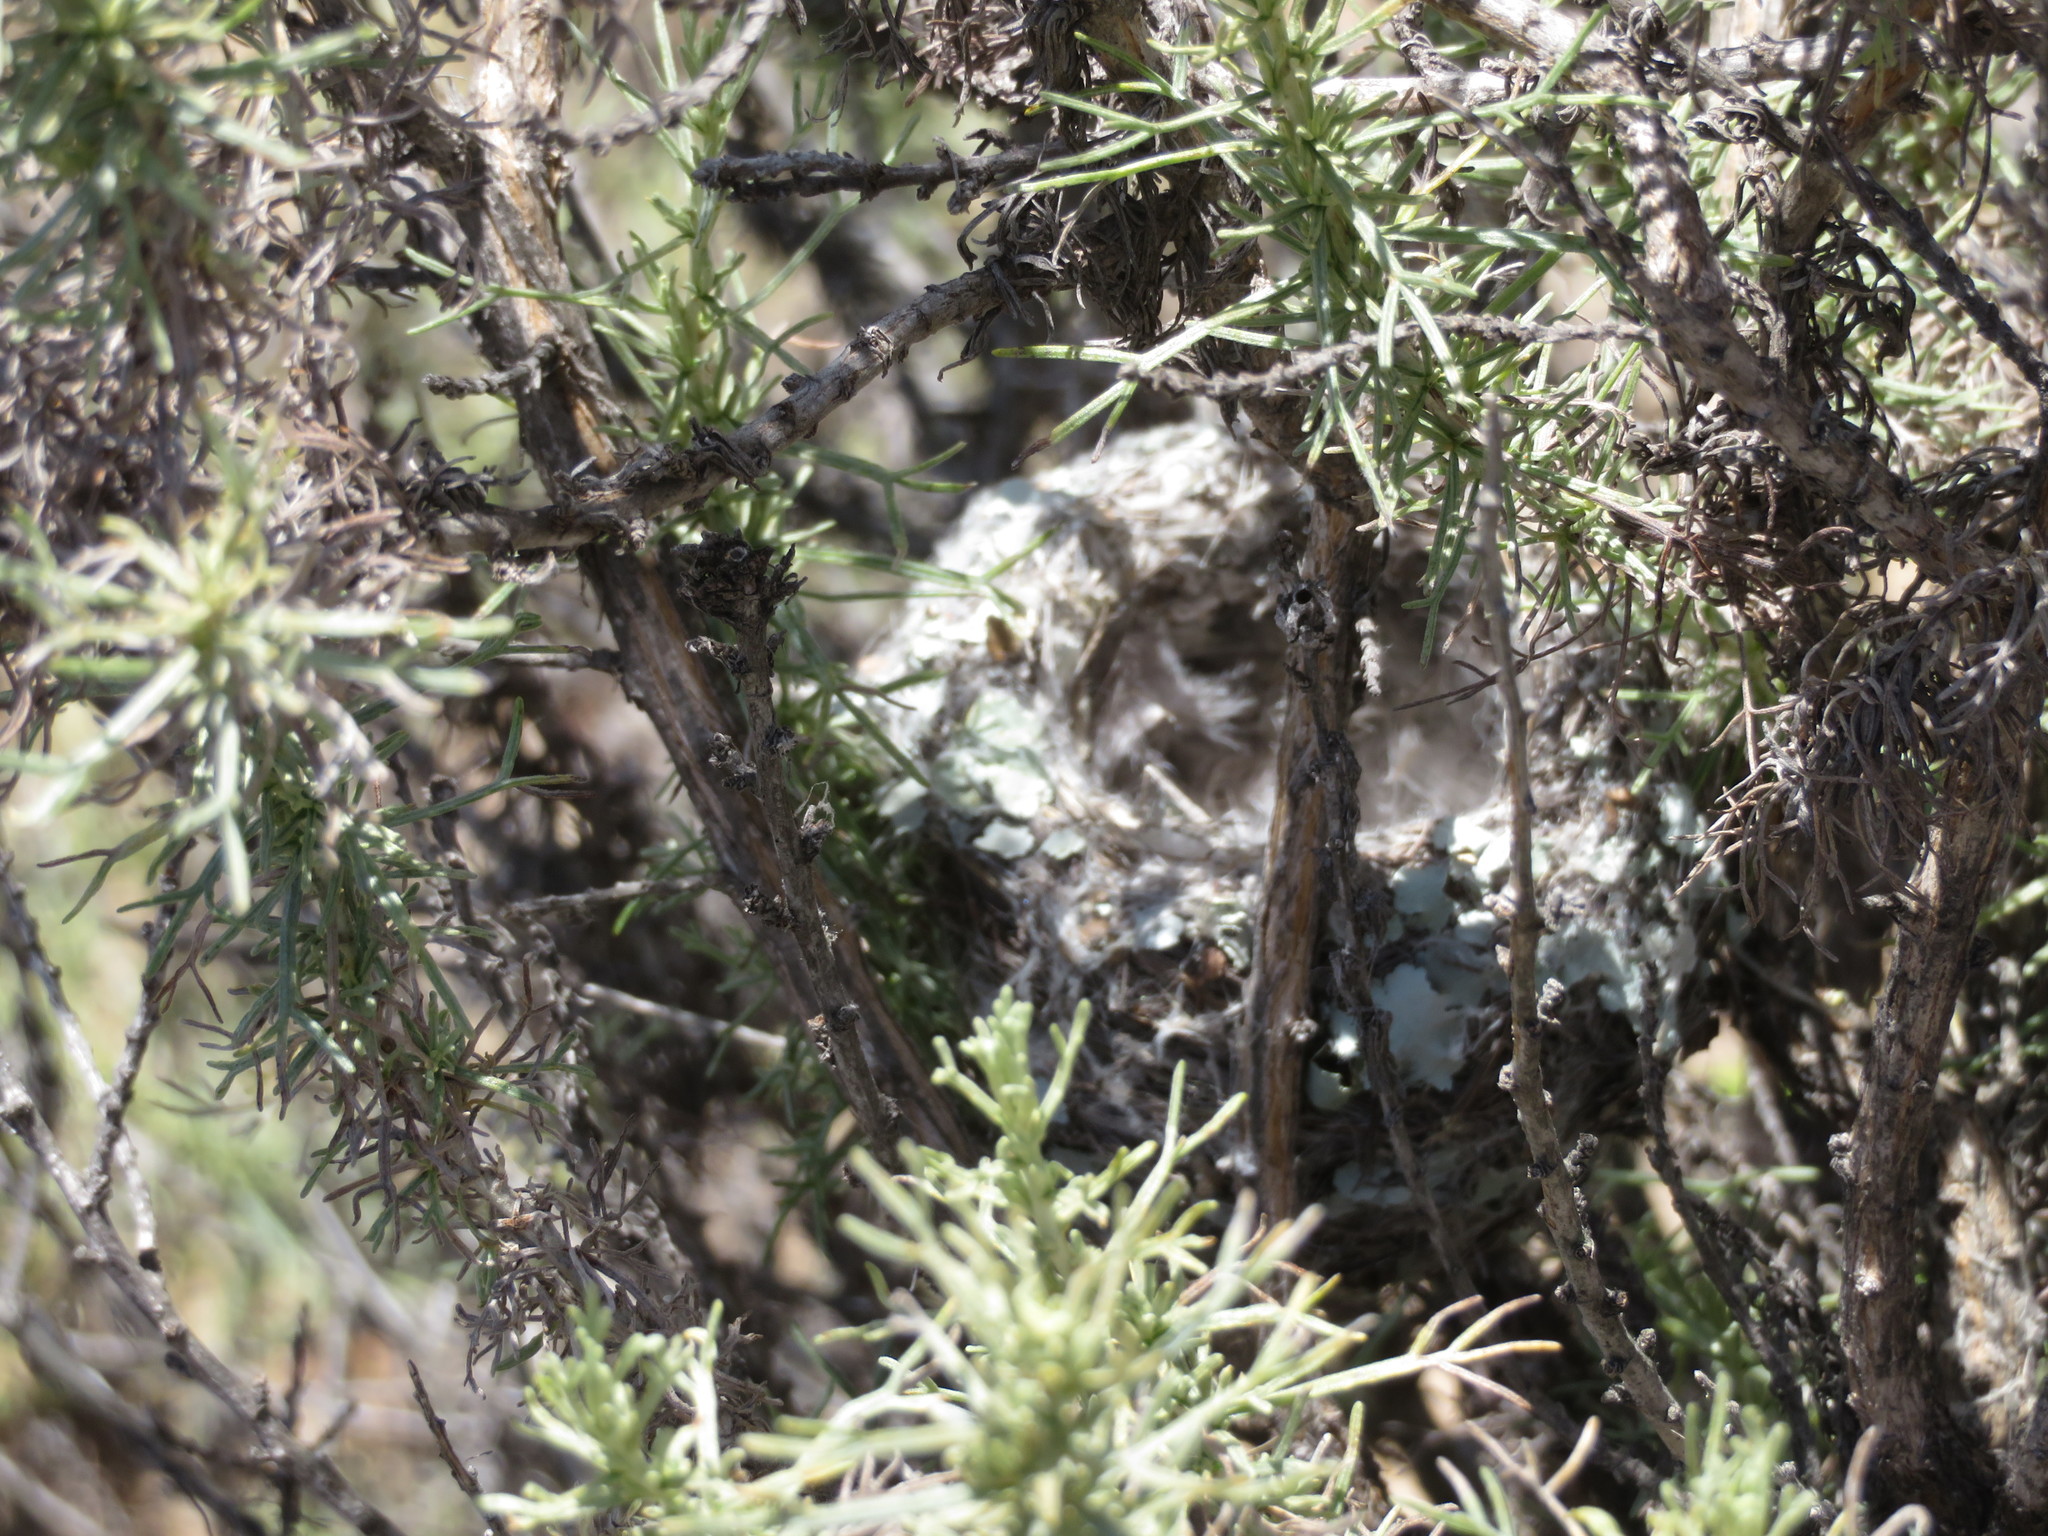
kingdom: Animalia
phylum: Chordata
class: Aves
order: Passeriformes
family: Polioptilidae
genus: Polioptila
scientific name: Polioptila caerulea
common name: Blue-gray gnatcatcher
